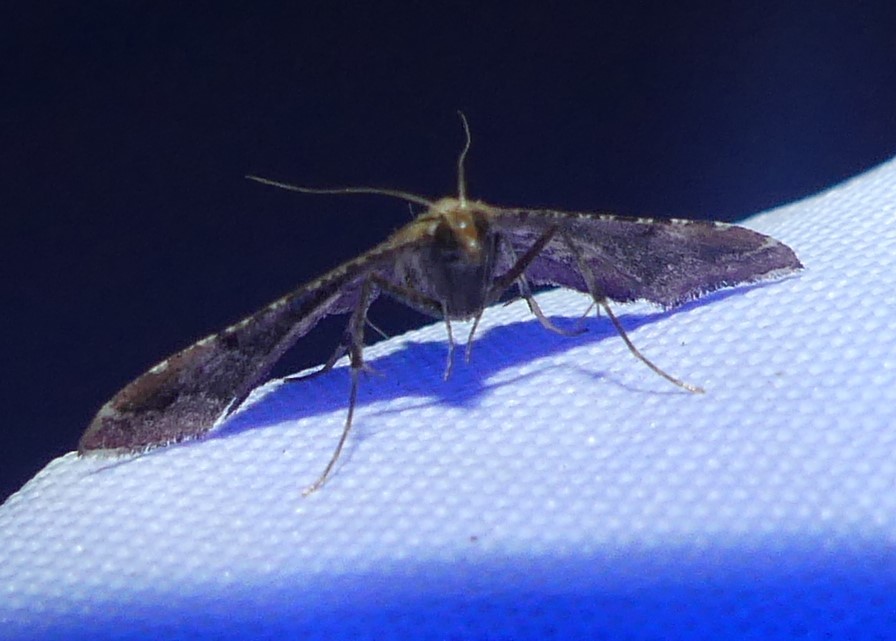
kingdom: Animalia
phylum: Arthropoda
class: Insecta
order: Lepidoptera
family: Pyralidae
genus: Endotricha
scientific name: Endotricha flammealis
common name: Rosy tabby
